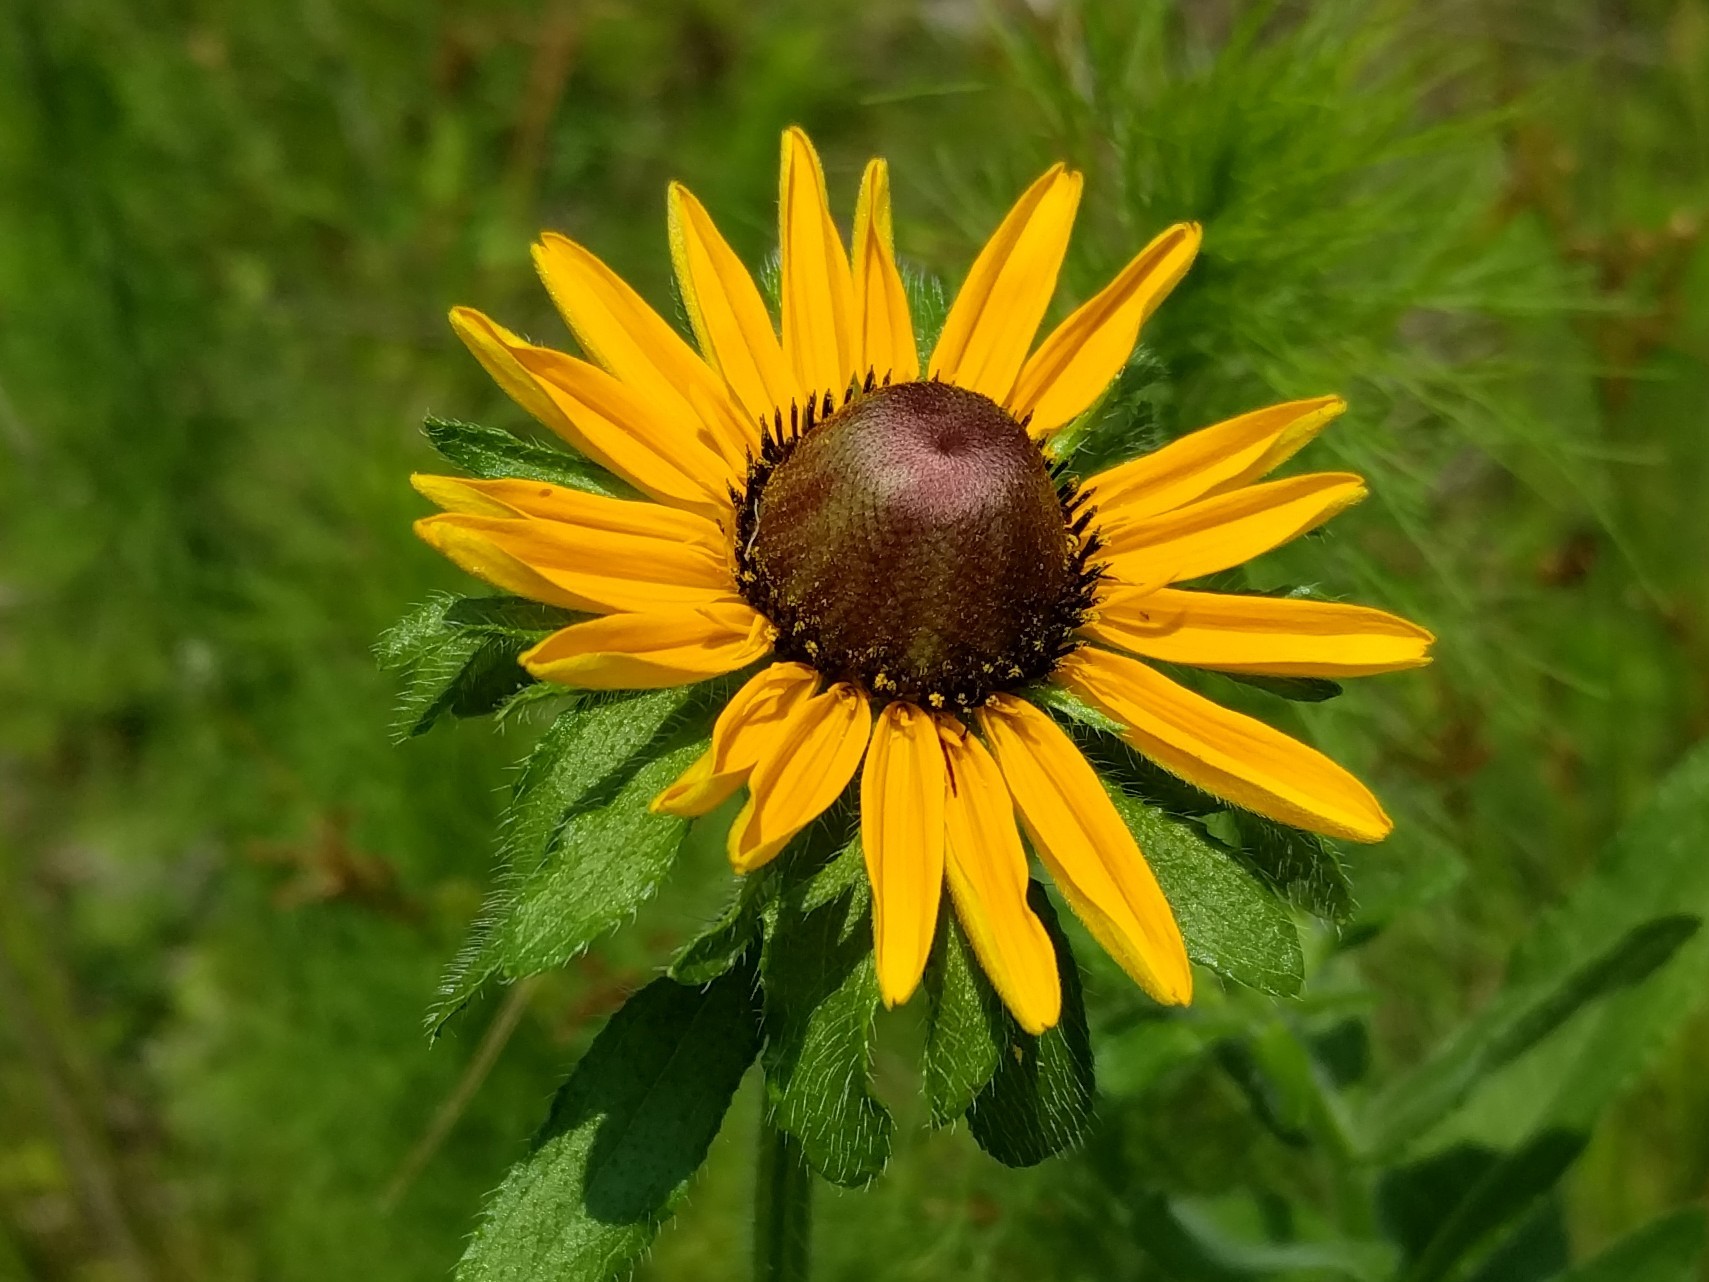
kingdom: Plantae
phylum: Tracheophyta
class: Magnoliopsida
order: Asterales
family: Asteraceae
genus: Rudbeckia
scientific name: Rudbeckia hirta
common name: Black-eyed-susan
